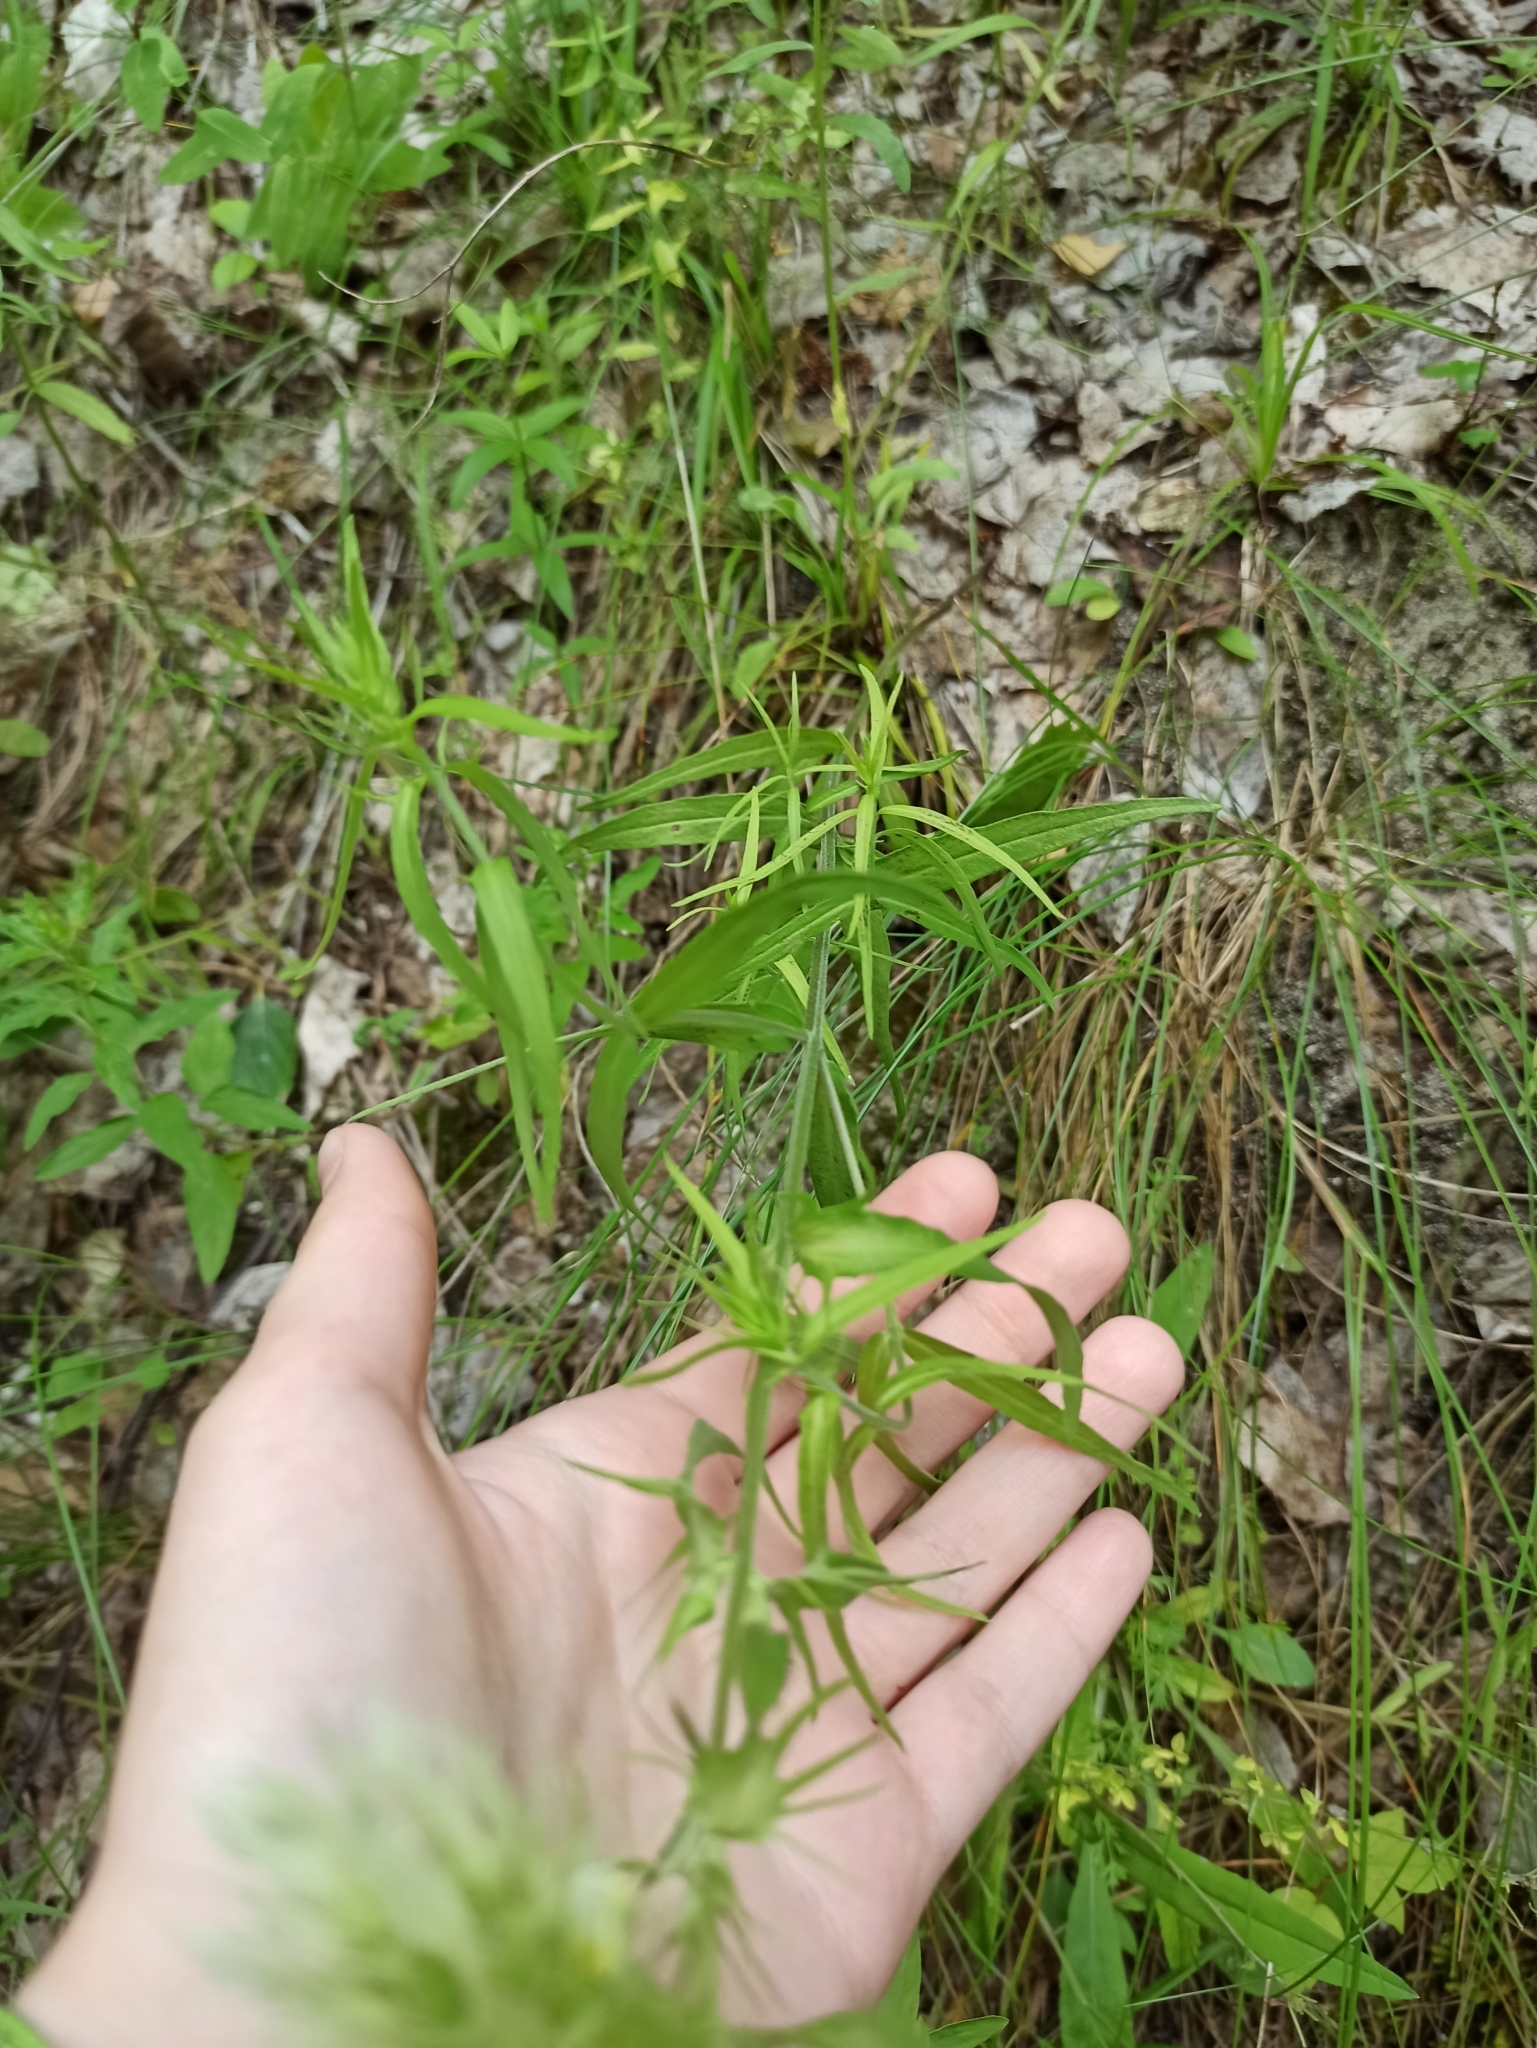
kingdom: Plantae
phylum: Tracheophyta
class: Magnoliopsida
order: Lamiales
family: Orobanchaceae
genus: Melampyrum
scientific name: Melampyrum arvense
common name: Field cow-wheat
